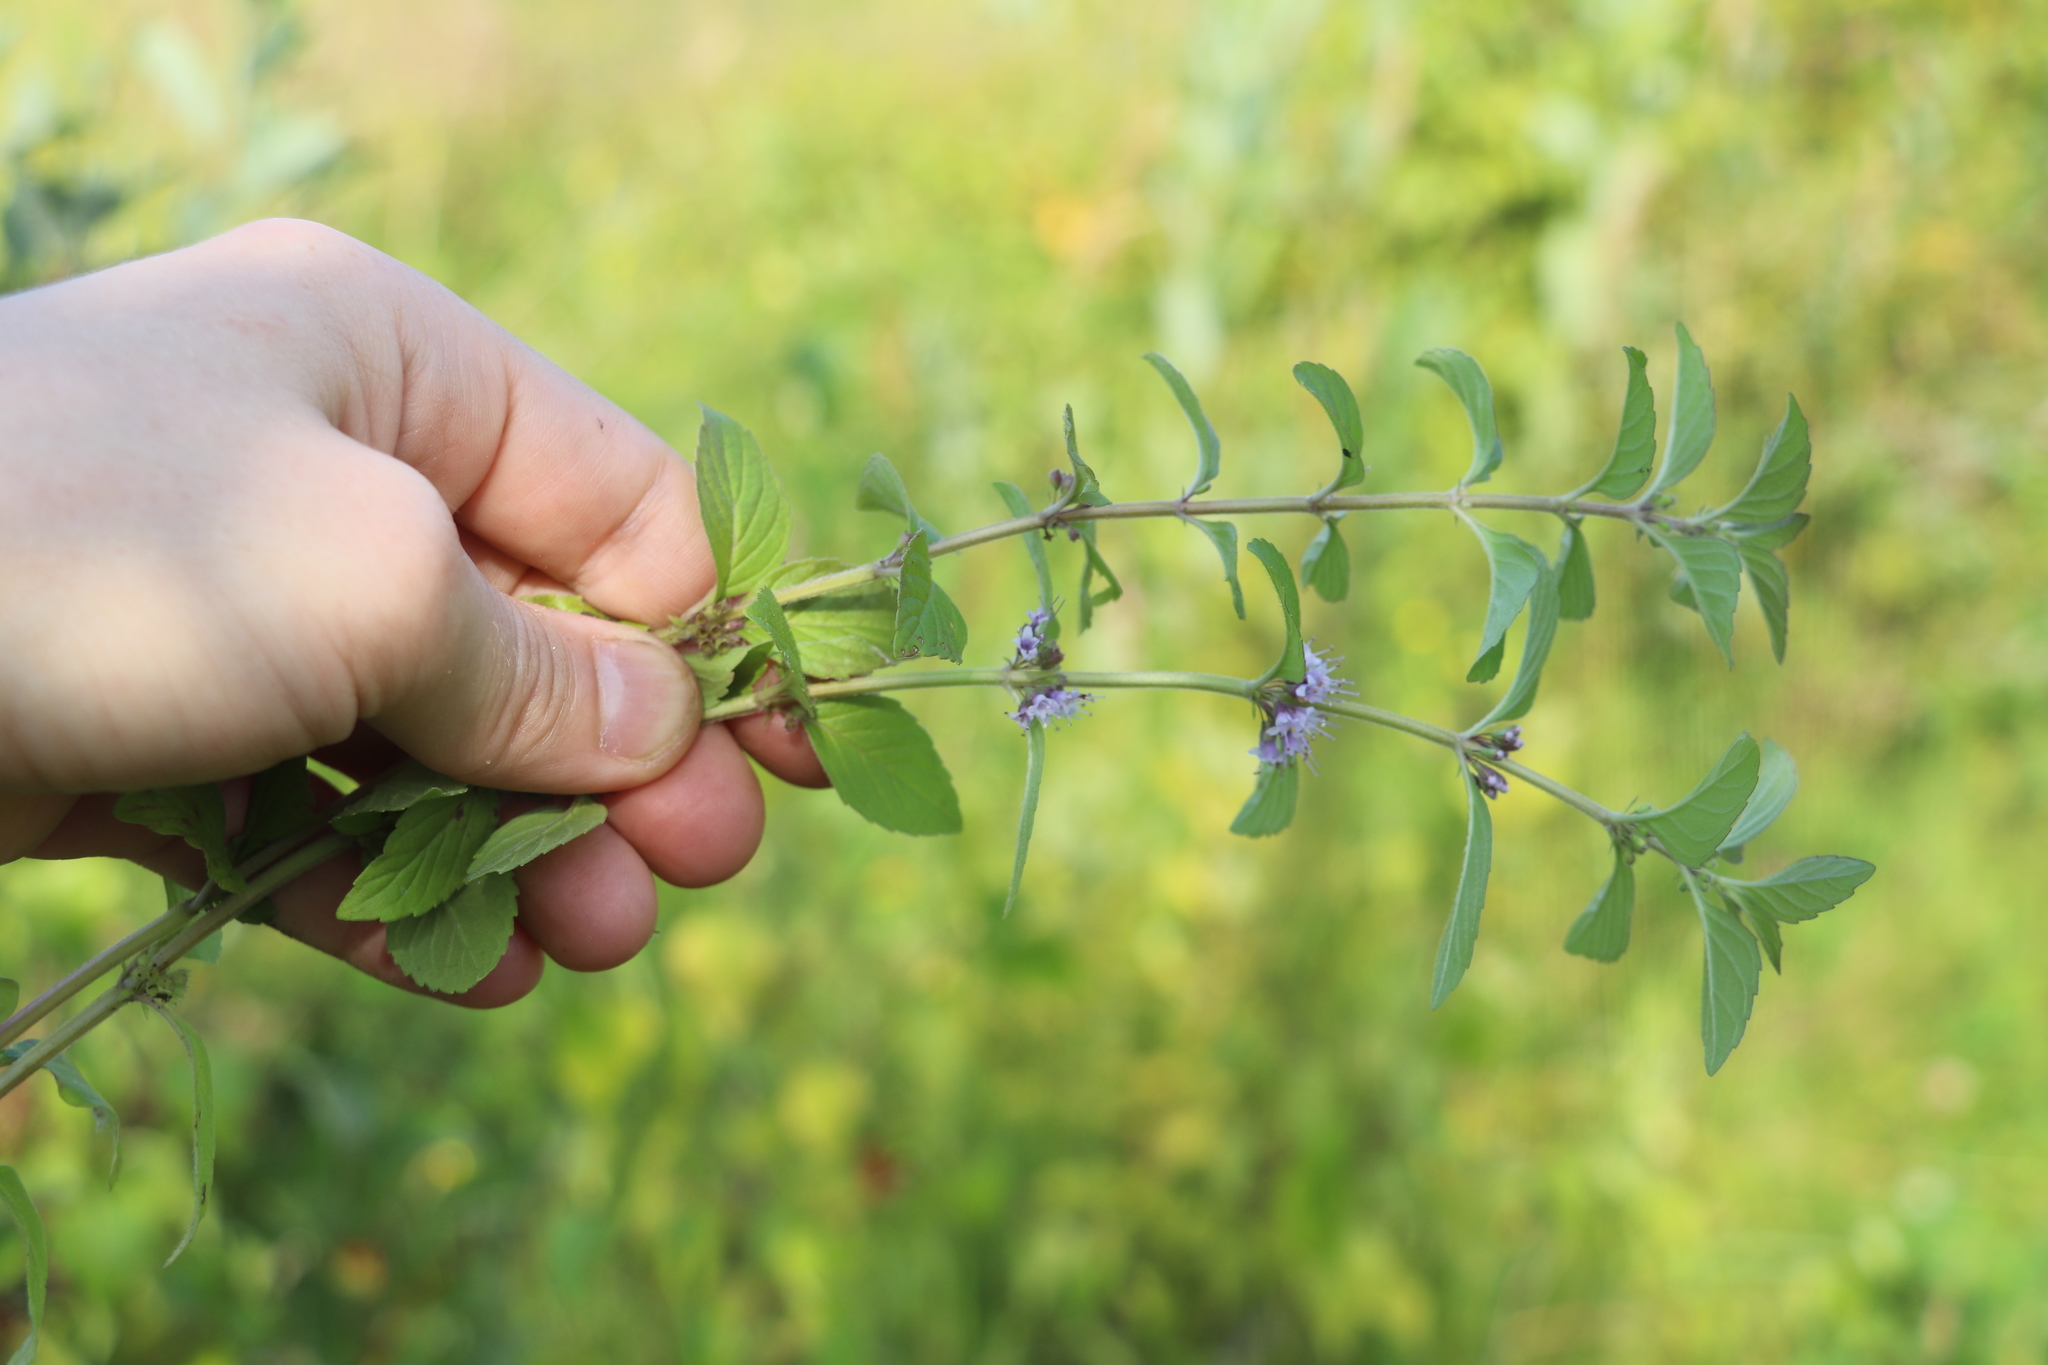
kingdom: Plantae
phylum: Tracheophyta
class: Magnoliopsida
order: Lamiales
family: Lamiaceae
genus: Mentha
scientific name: Mentha arvensis
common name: Corn mint
